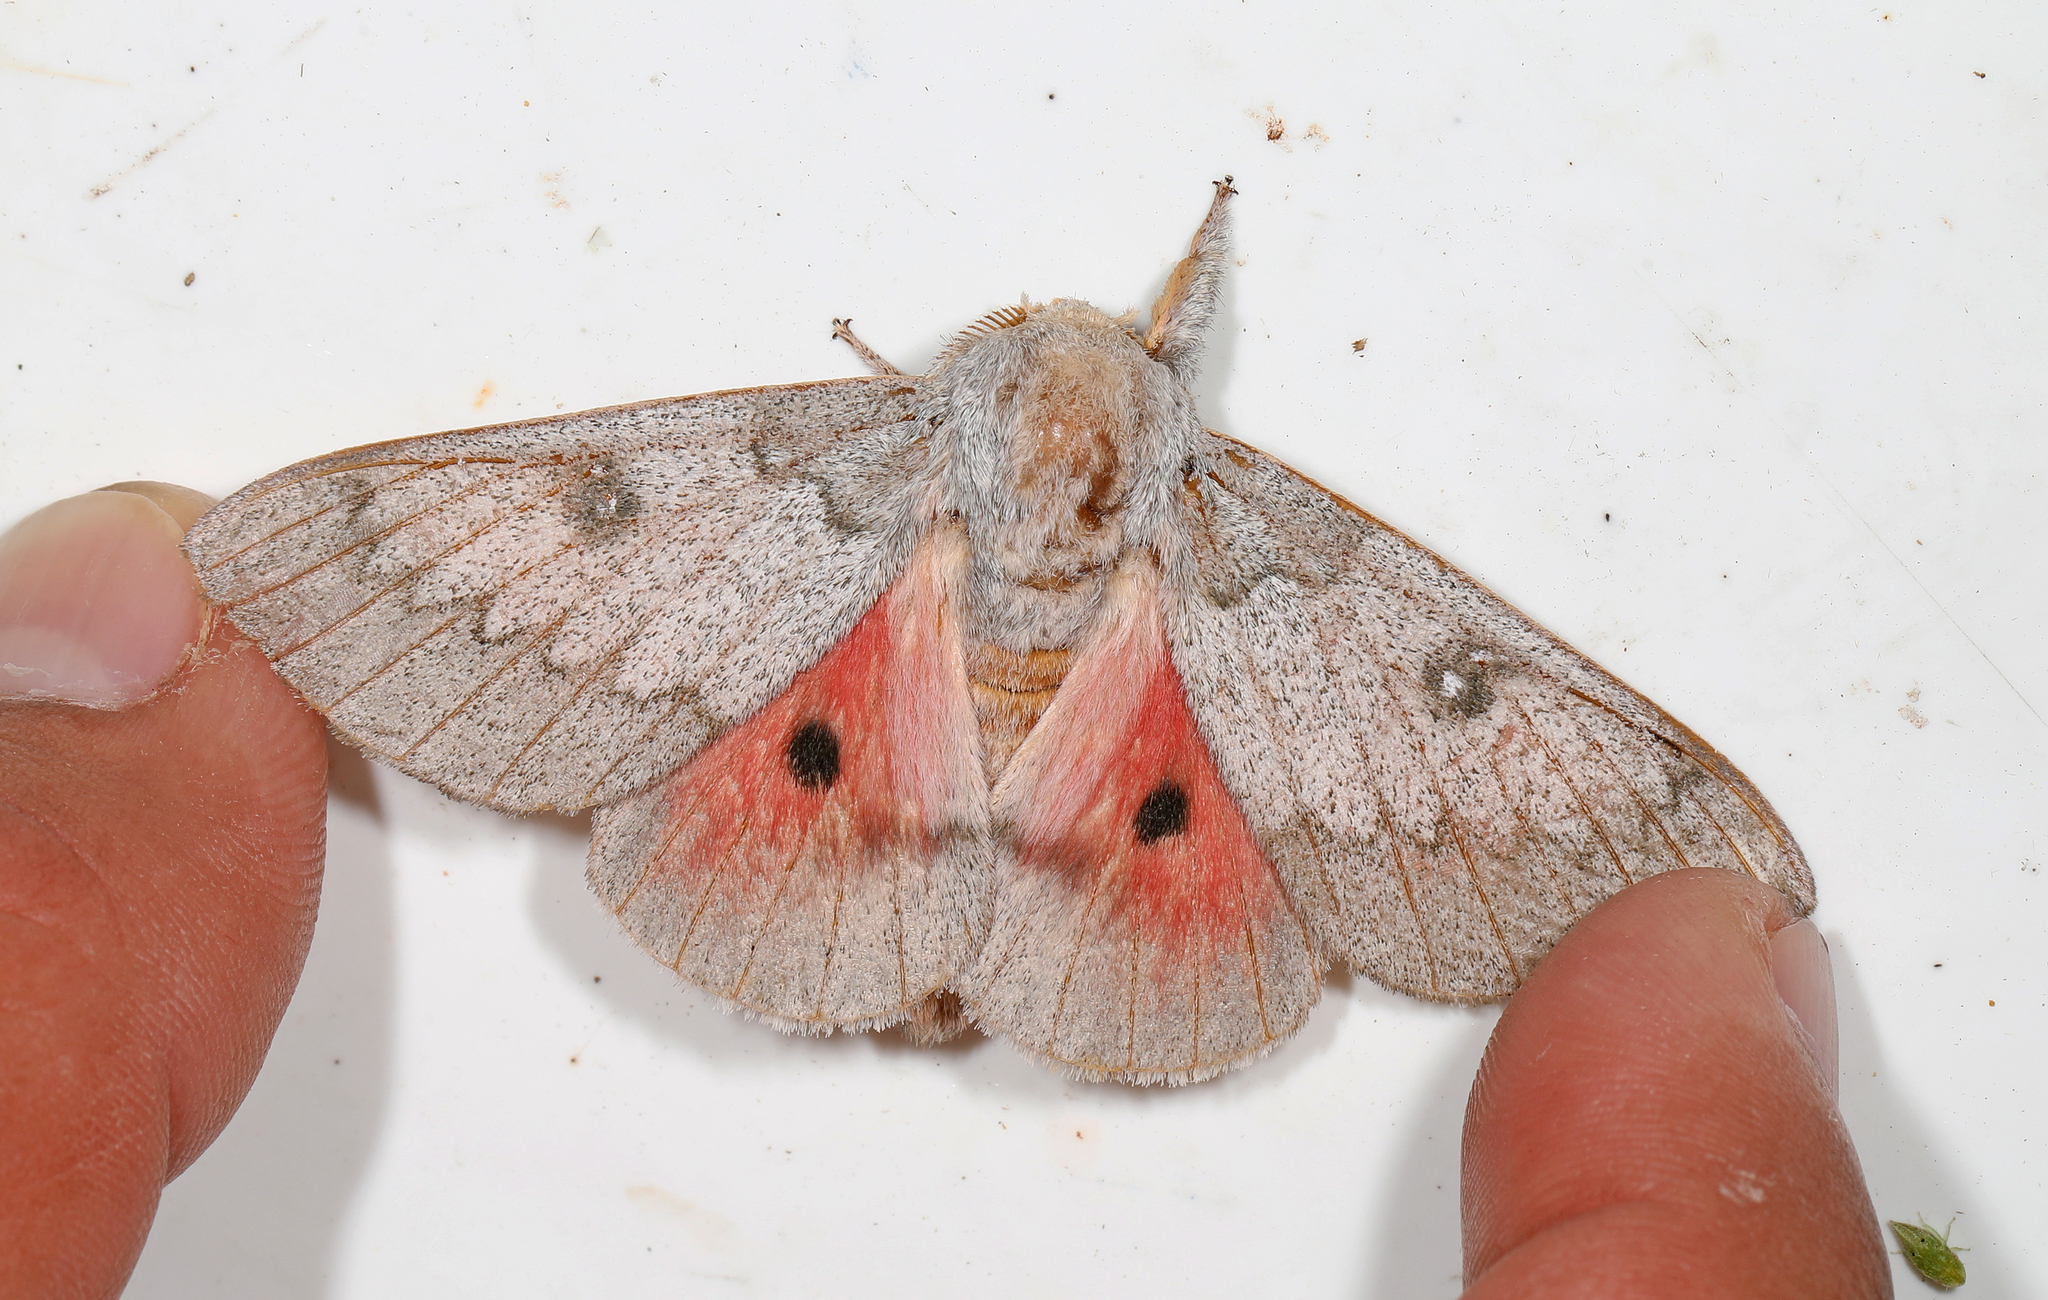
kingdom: Animalia
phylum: Arthropoda
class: Insecta
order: Lepidoptera
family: Saturniidae
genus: Syssphinx
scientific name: Syssphinx heiligbrodti
